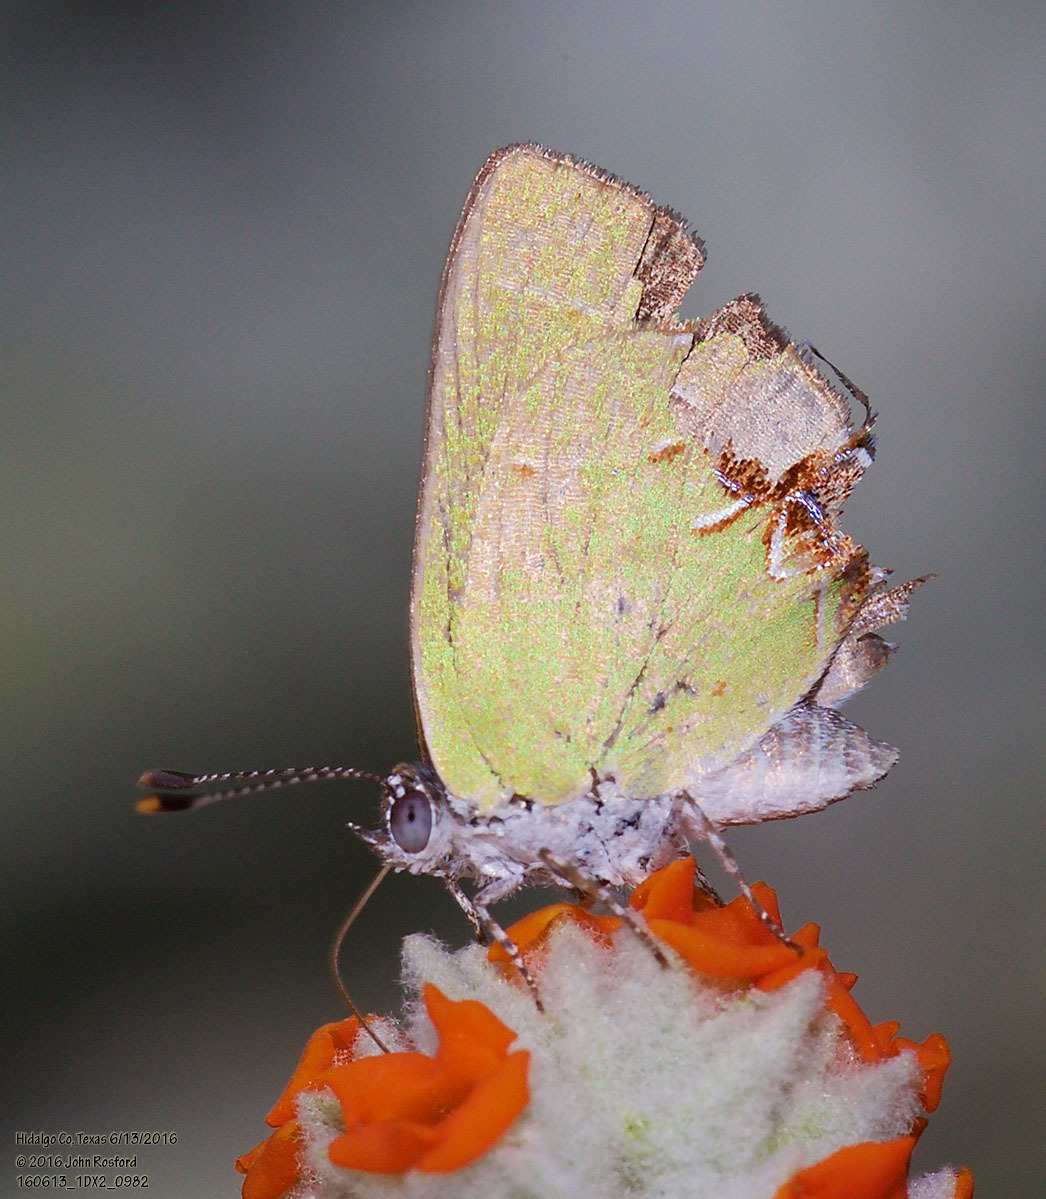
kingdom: Animalia
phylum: Arthropoda
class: Insecta
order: Lepidoptera
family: Lycaenidae
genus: Chlorostrymon
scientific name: Chlorostrymon telea
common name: Telea hairstreak
